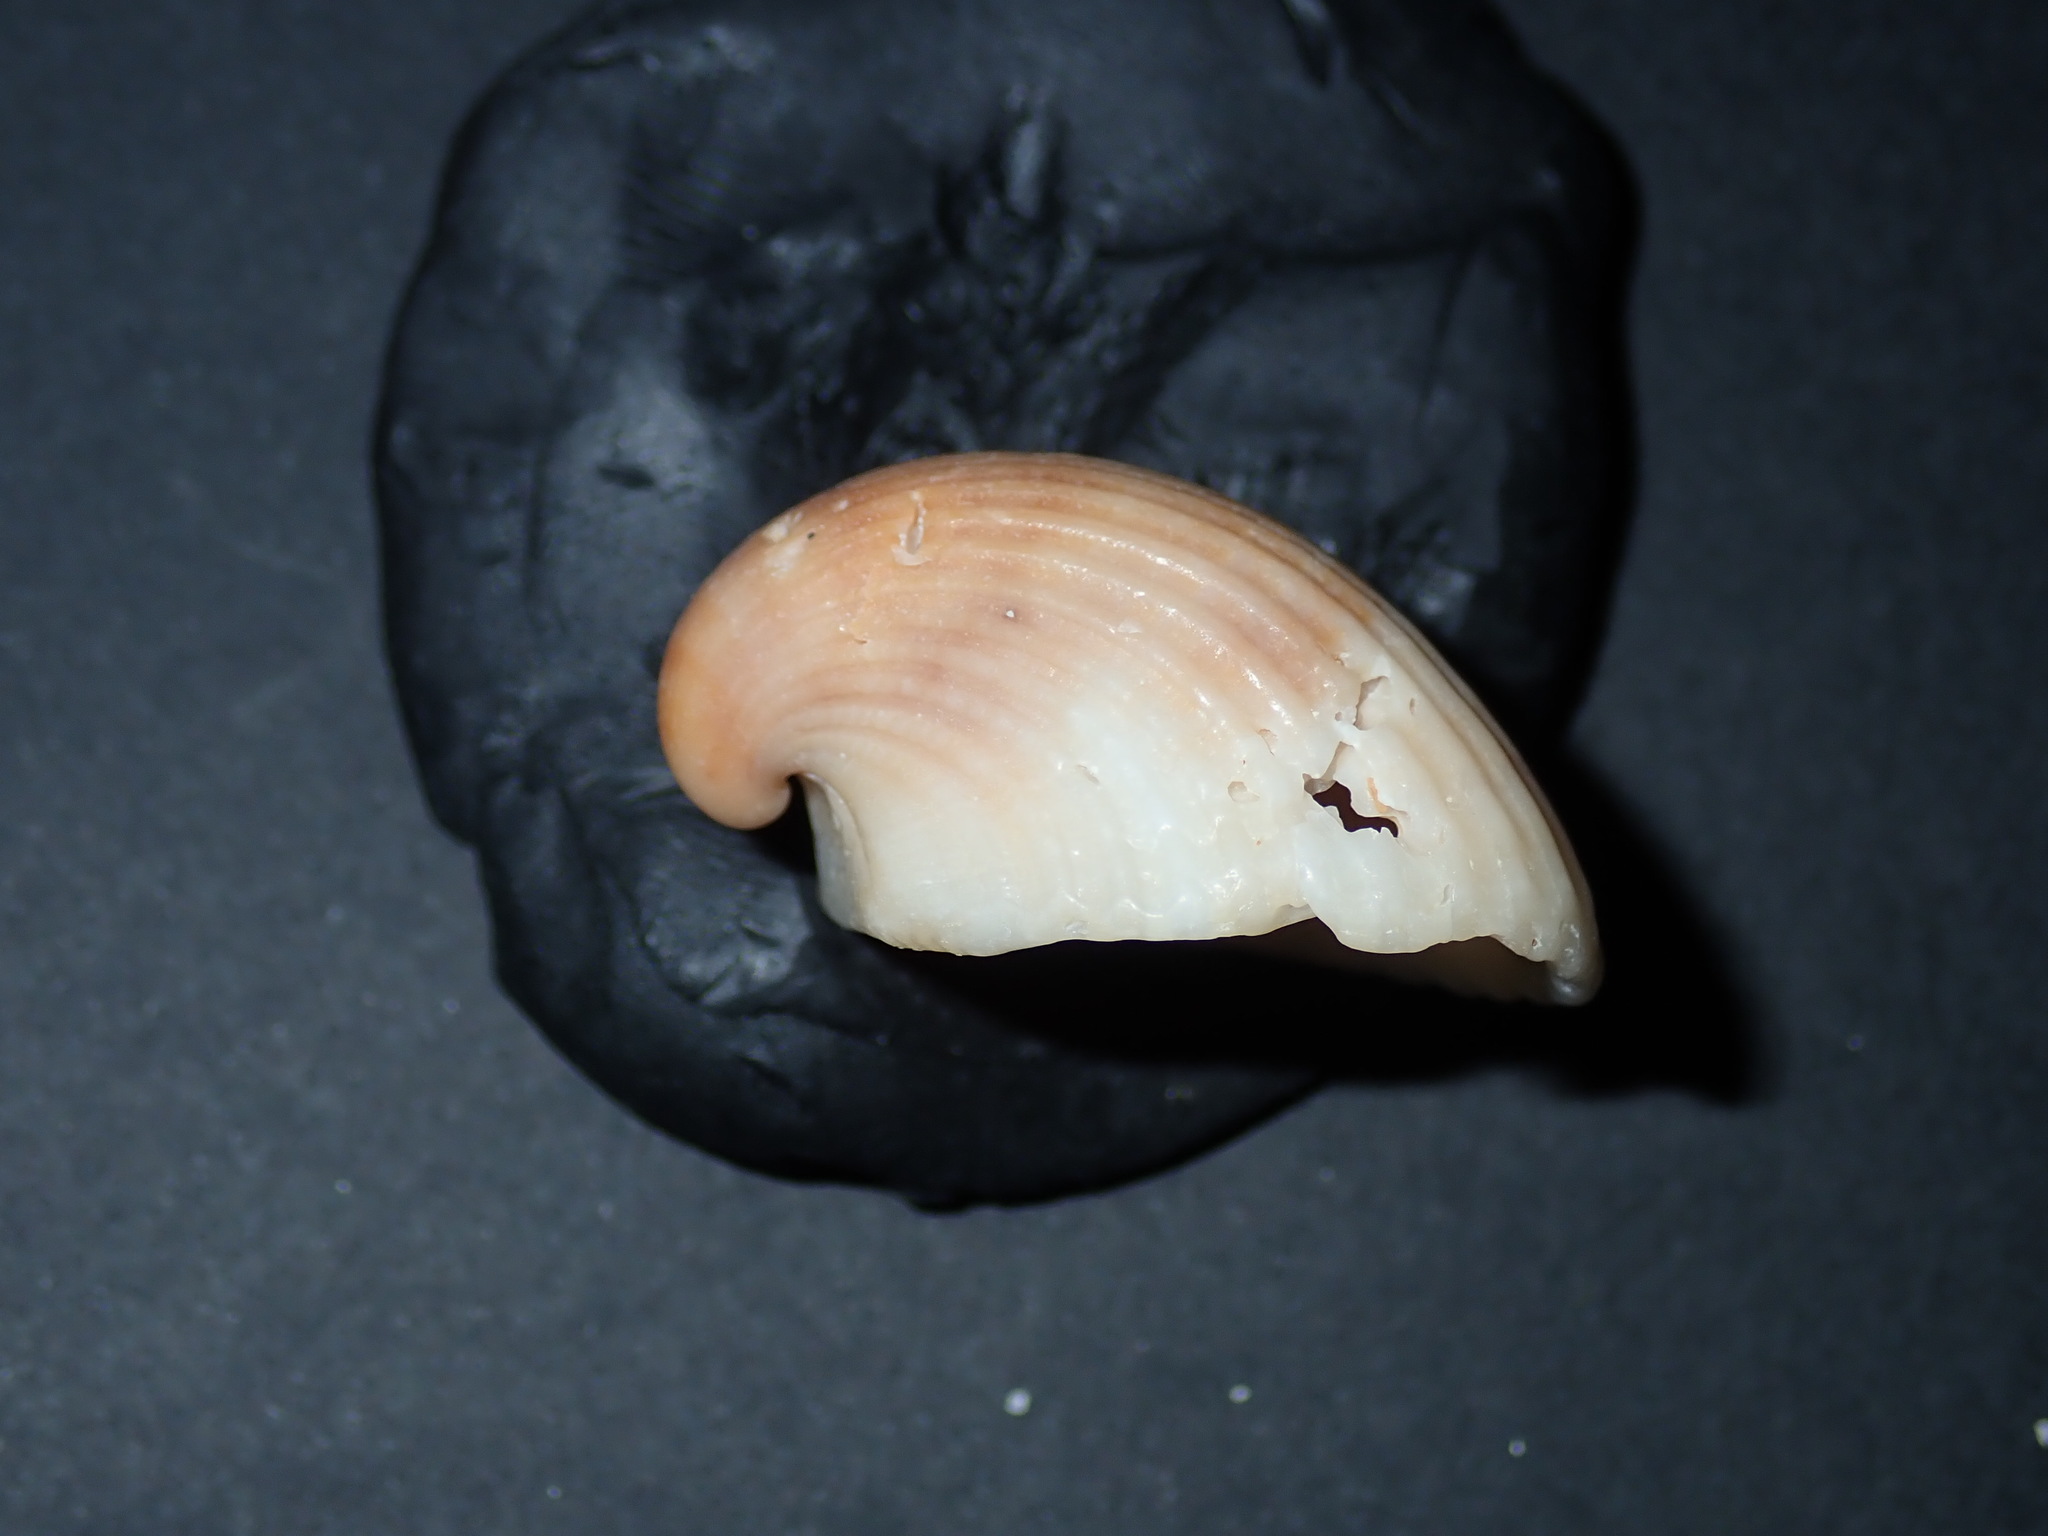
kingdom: Animalia
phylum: Mollusca
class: Bivalvia
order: Arcida
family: Arcidae
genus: Anadara
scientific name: Anadara pilula
